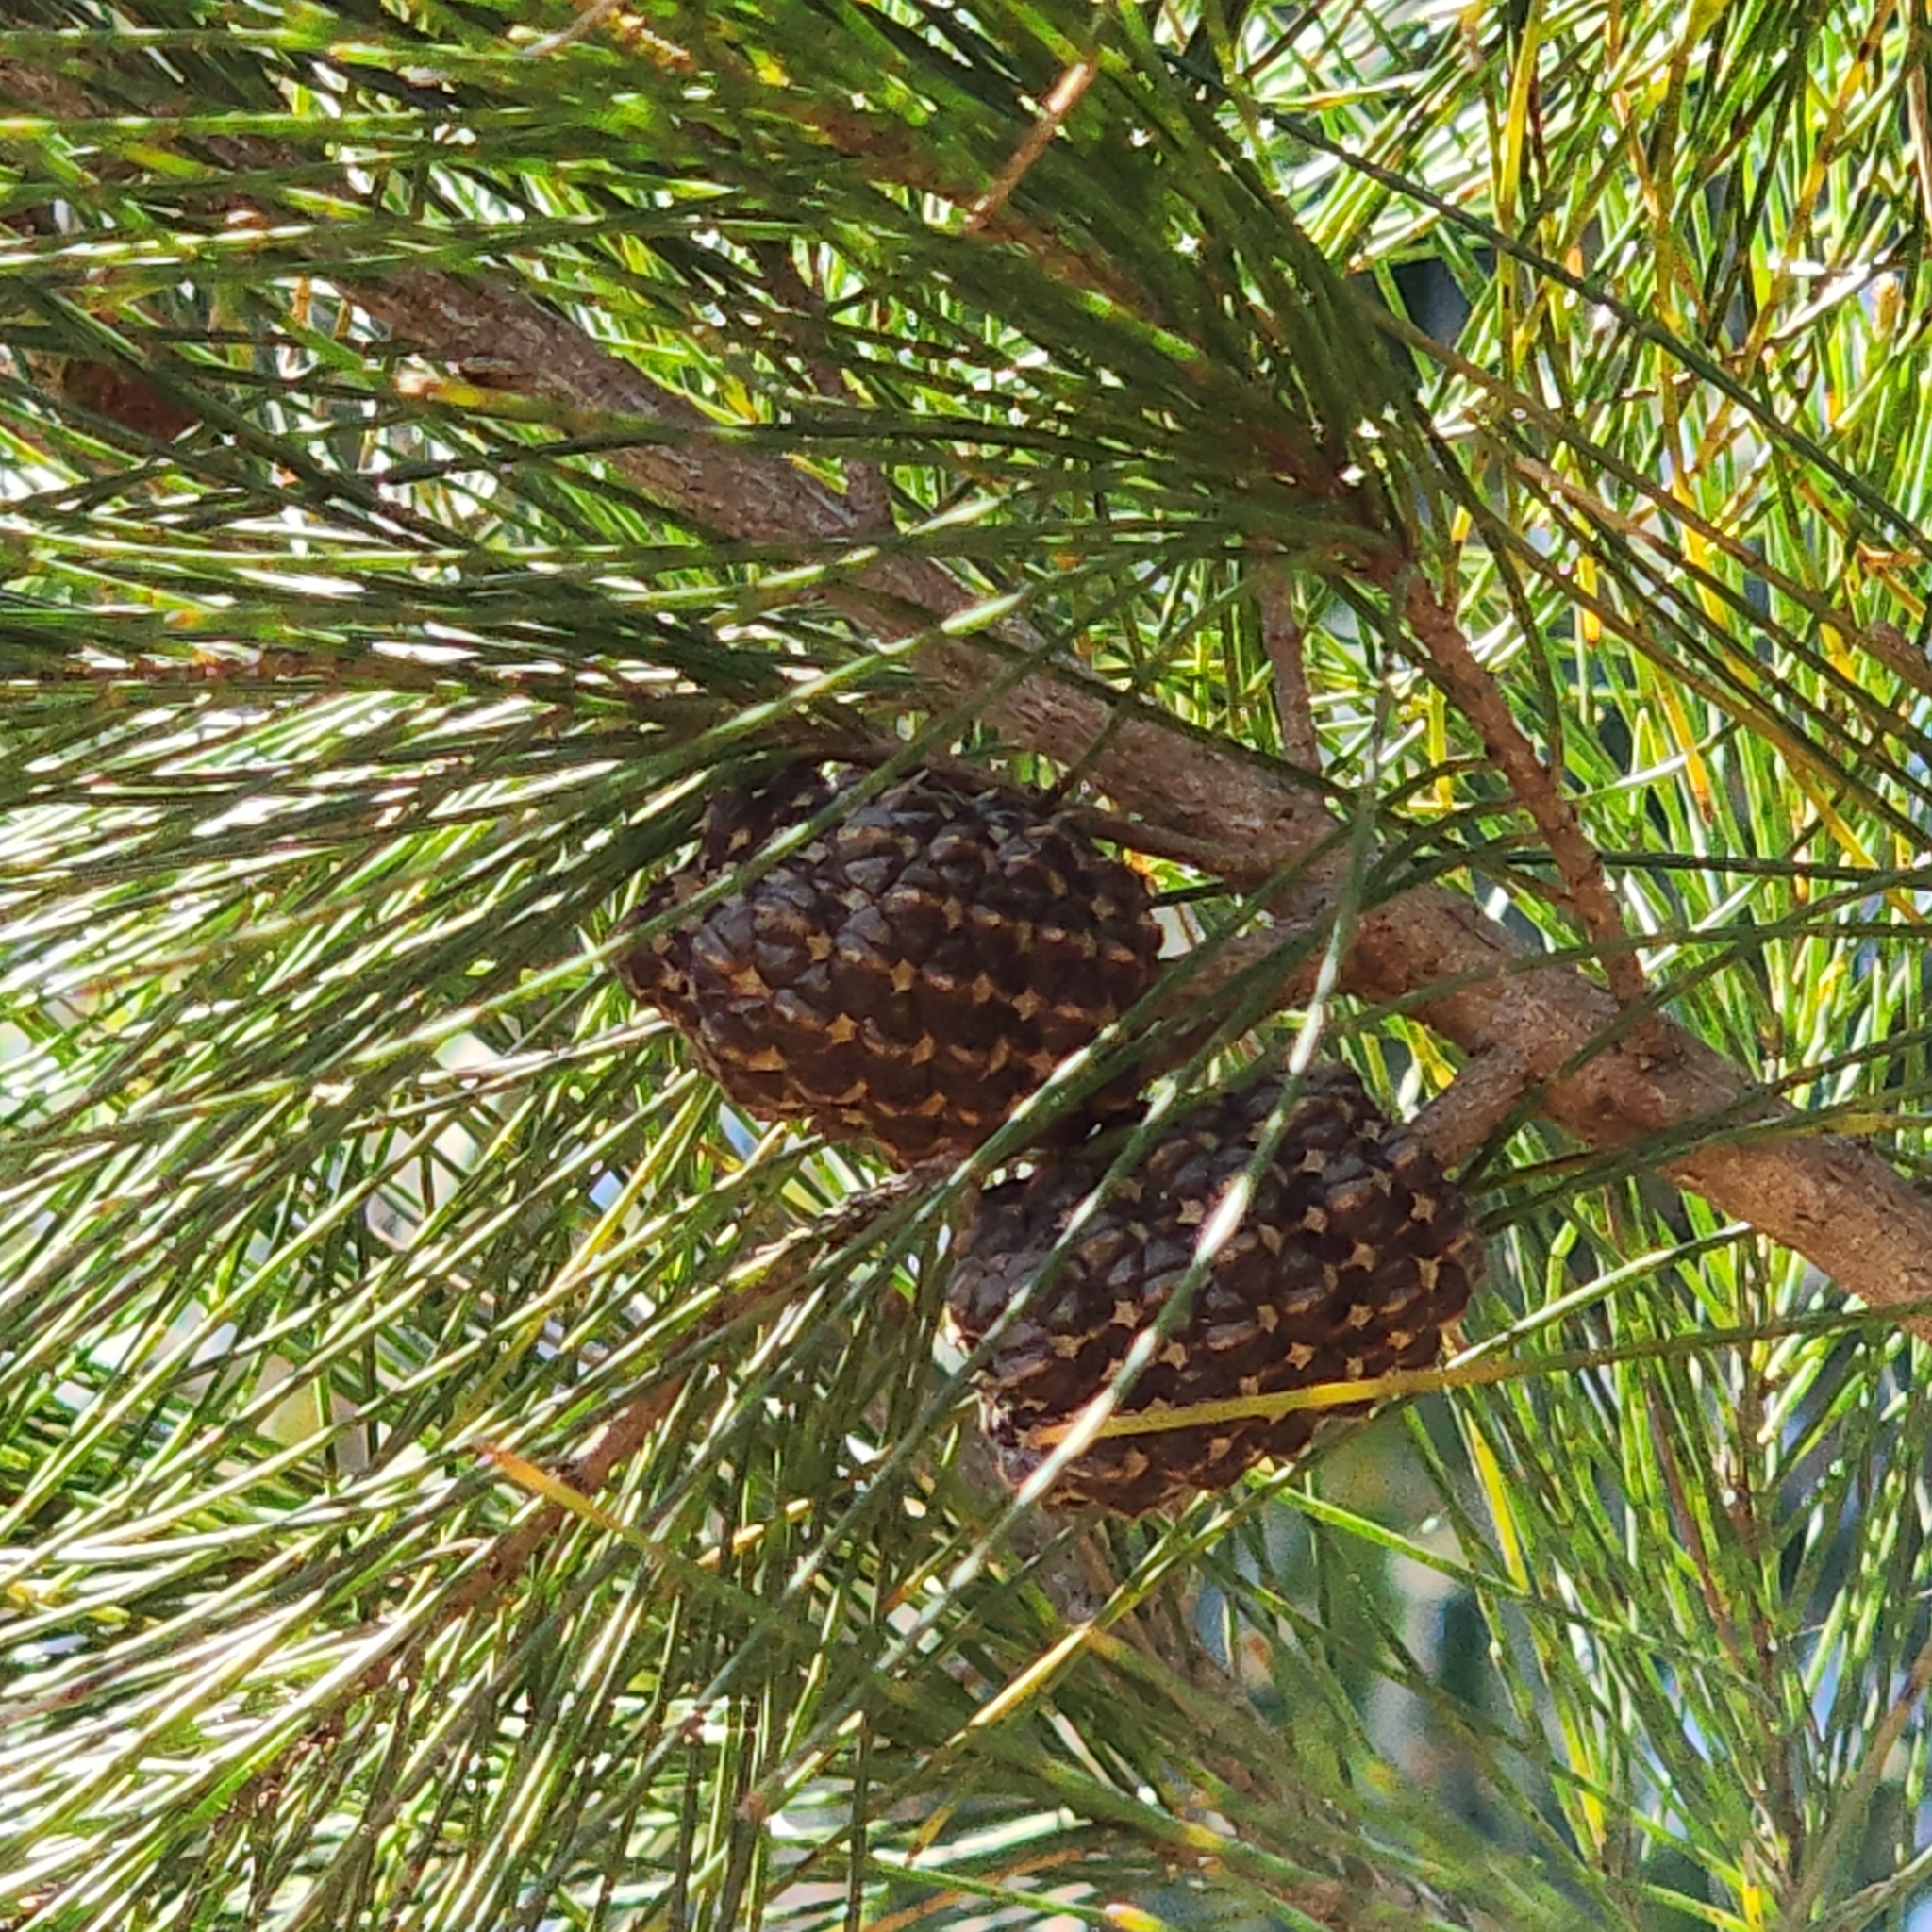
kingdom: Plantae
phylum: Tracheophyta
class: Magnoliopsida
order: Fagales
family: Casuarinaceae
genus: Allocasuarina
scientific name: Allocasuarina littoralis
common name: Black she-oak
